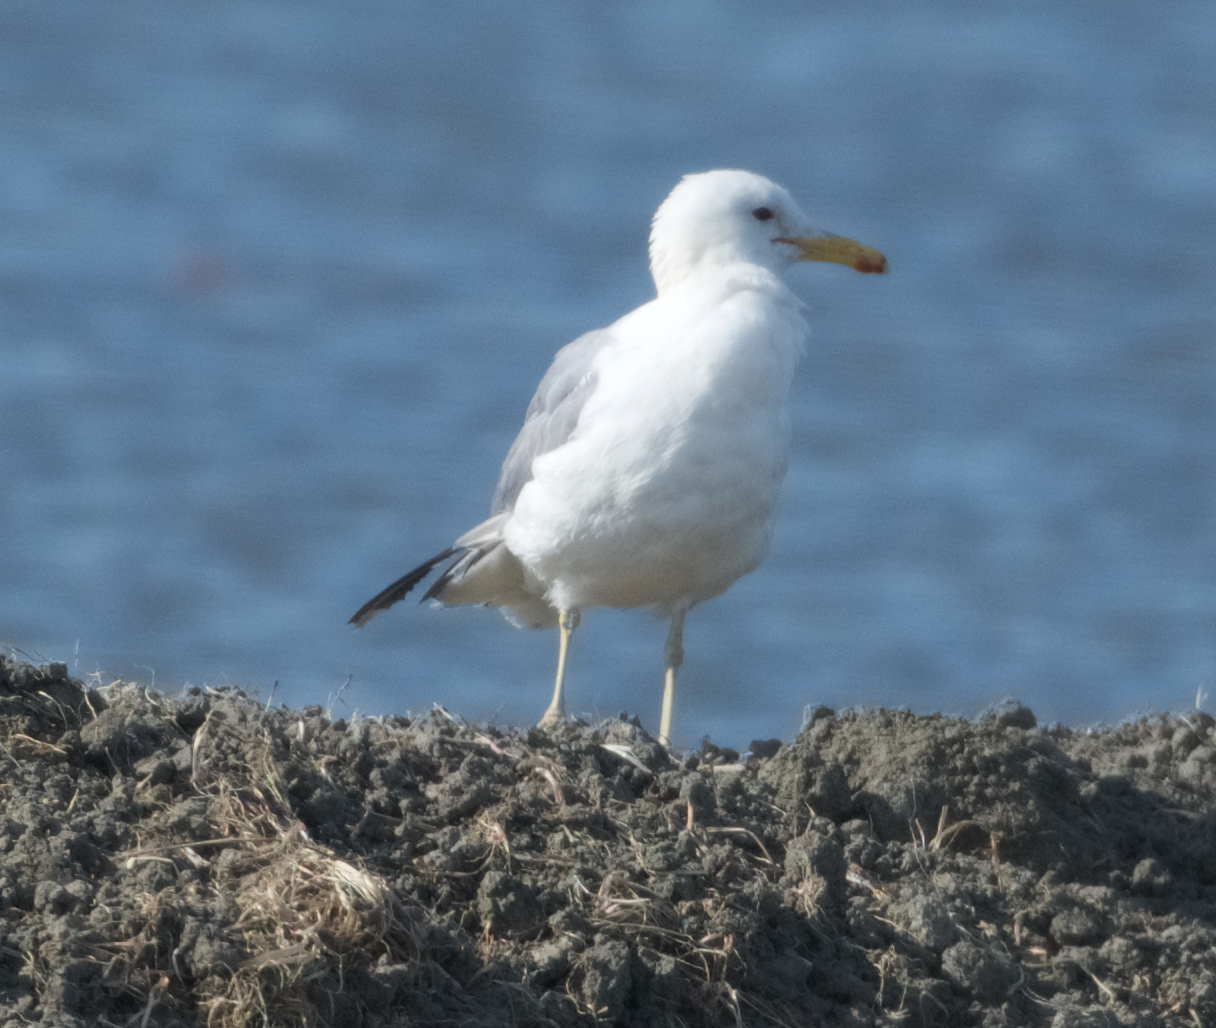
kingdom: Animalia
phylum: Chordata
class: Aves
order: Charadriiformes
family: Laridae
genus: Larus
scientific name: Larus californicus
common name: California gull
